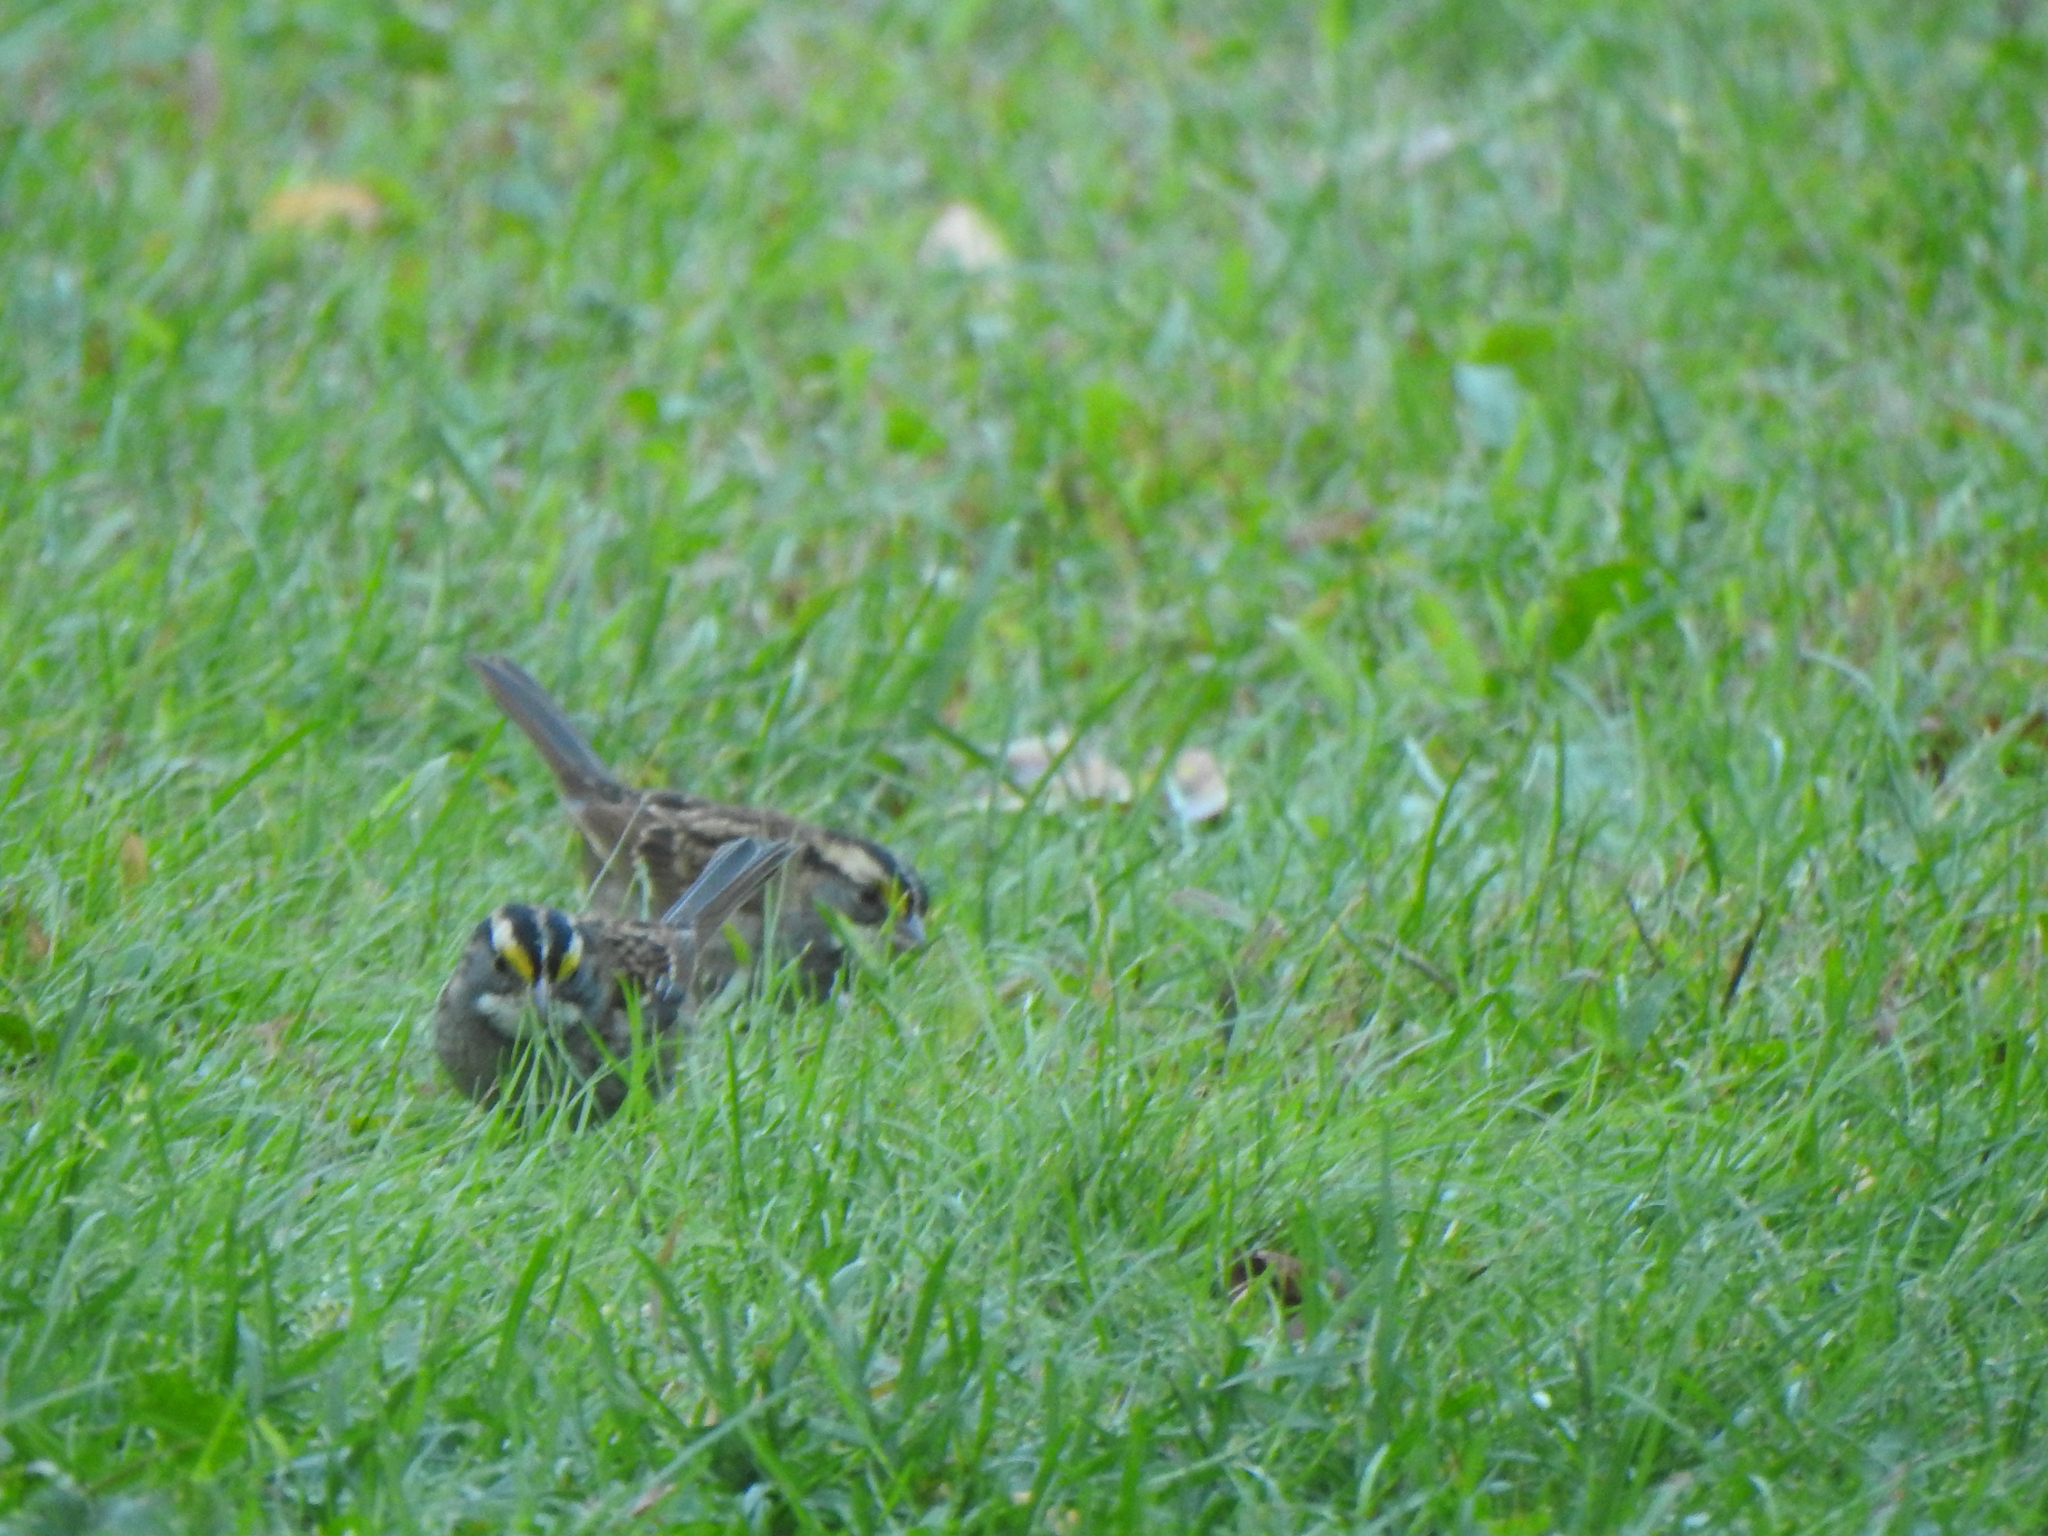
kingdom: Animalia
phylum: Chordata
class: Aves
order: Passeriformes
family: Passerellidae
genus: Zonotrichia
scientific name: Zonotrichia albicollis
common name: White-throated sparrow
